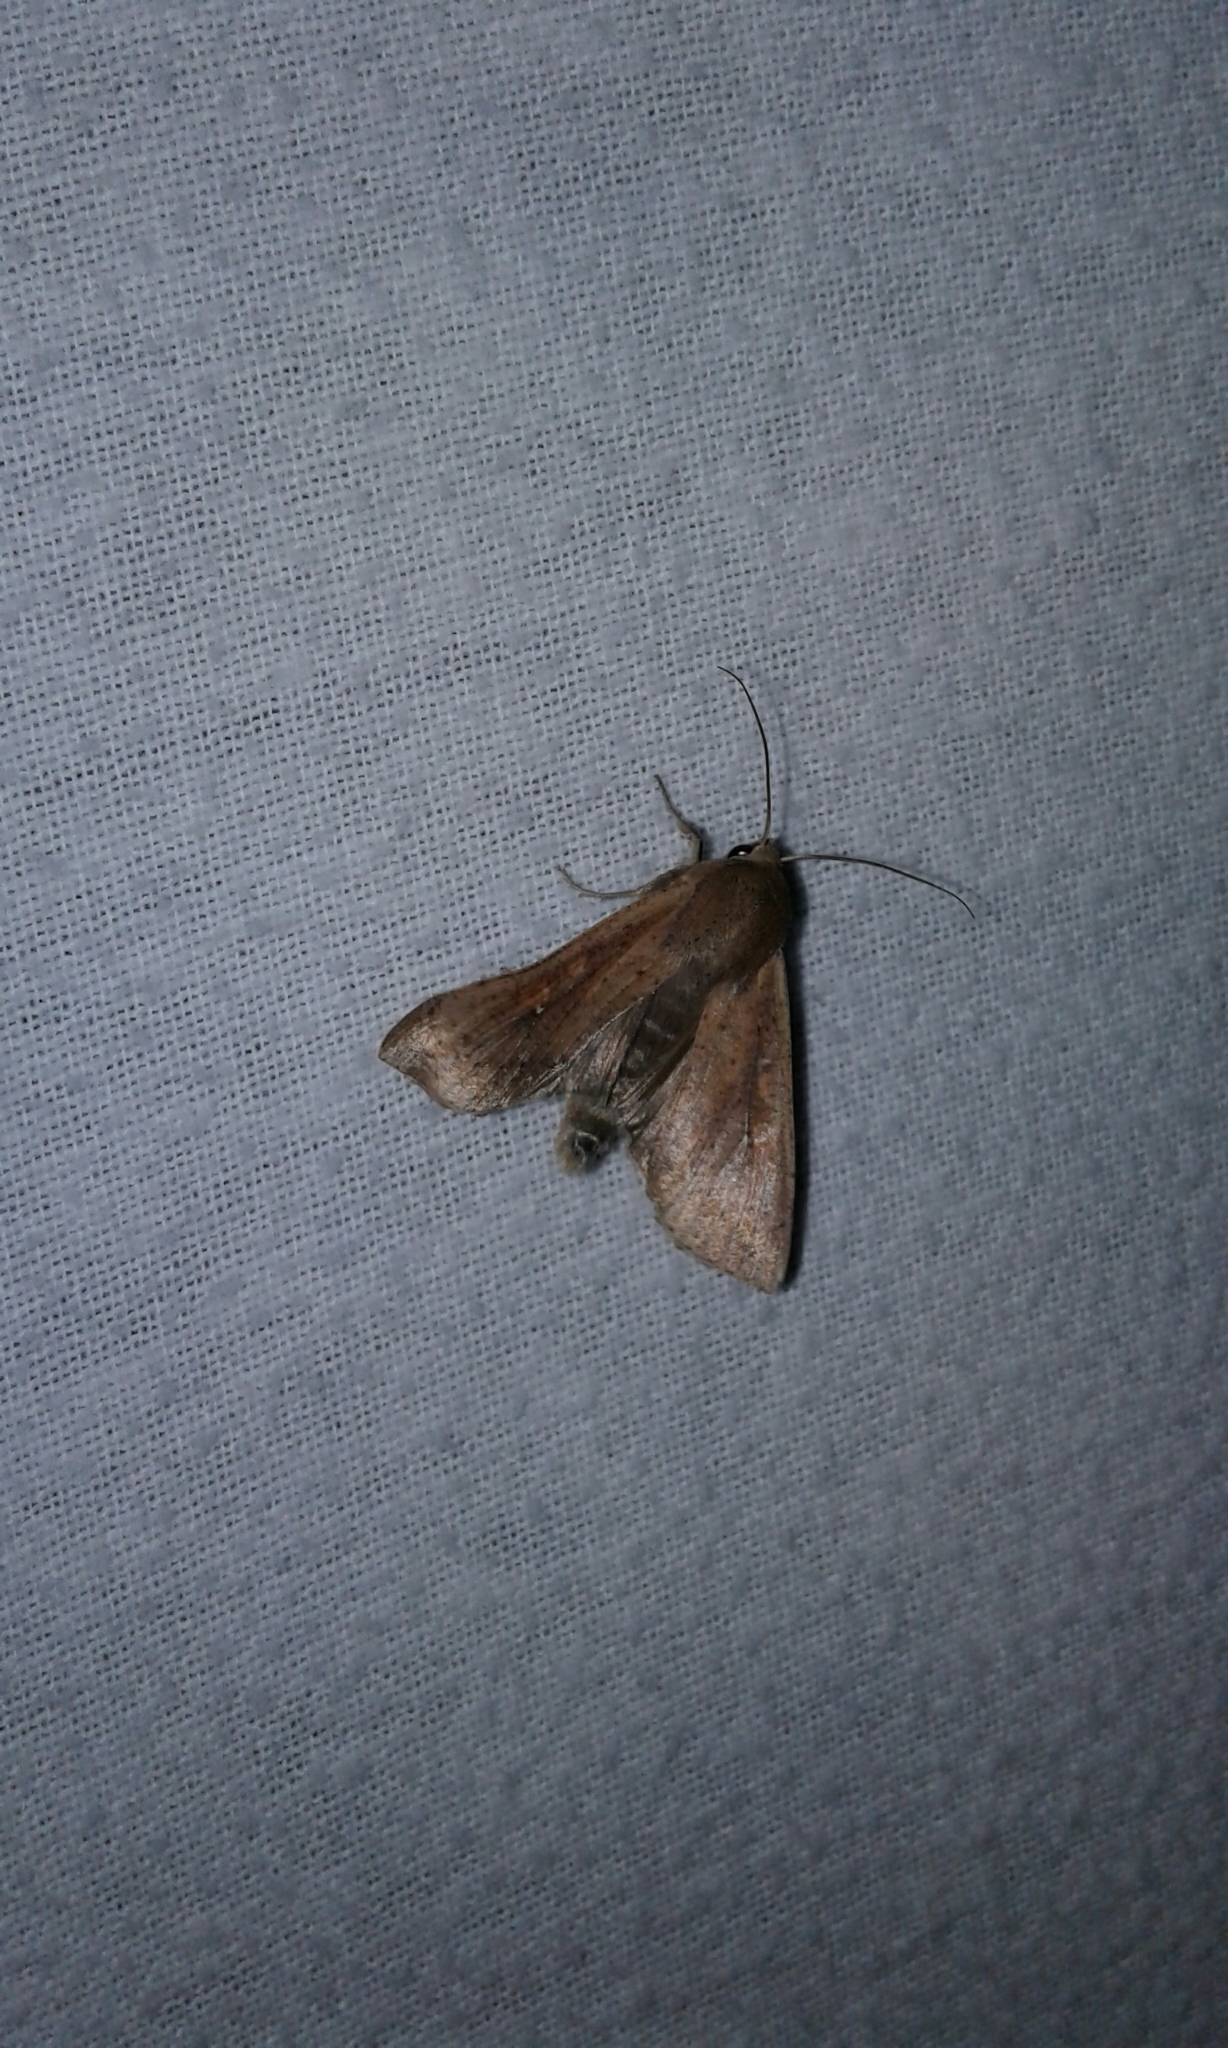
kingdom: Animalia
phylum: Arthropoda
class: Insecta
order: Lepidoptera
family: Noctuidae
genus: Mythimna
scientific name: Mythimna unipuncta
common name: White-speck
